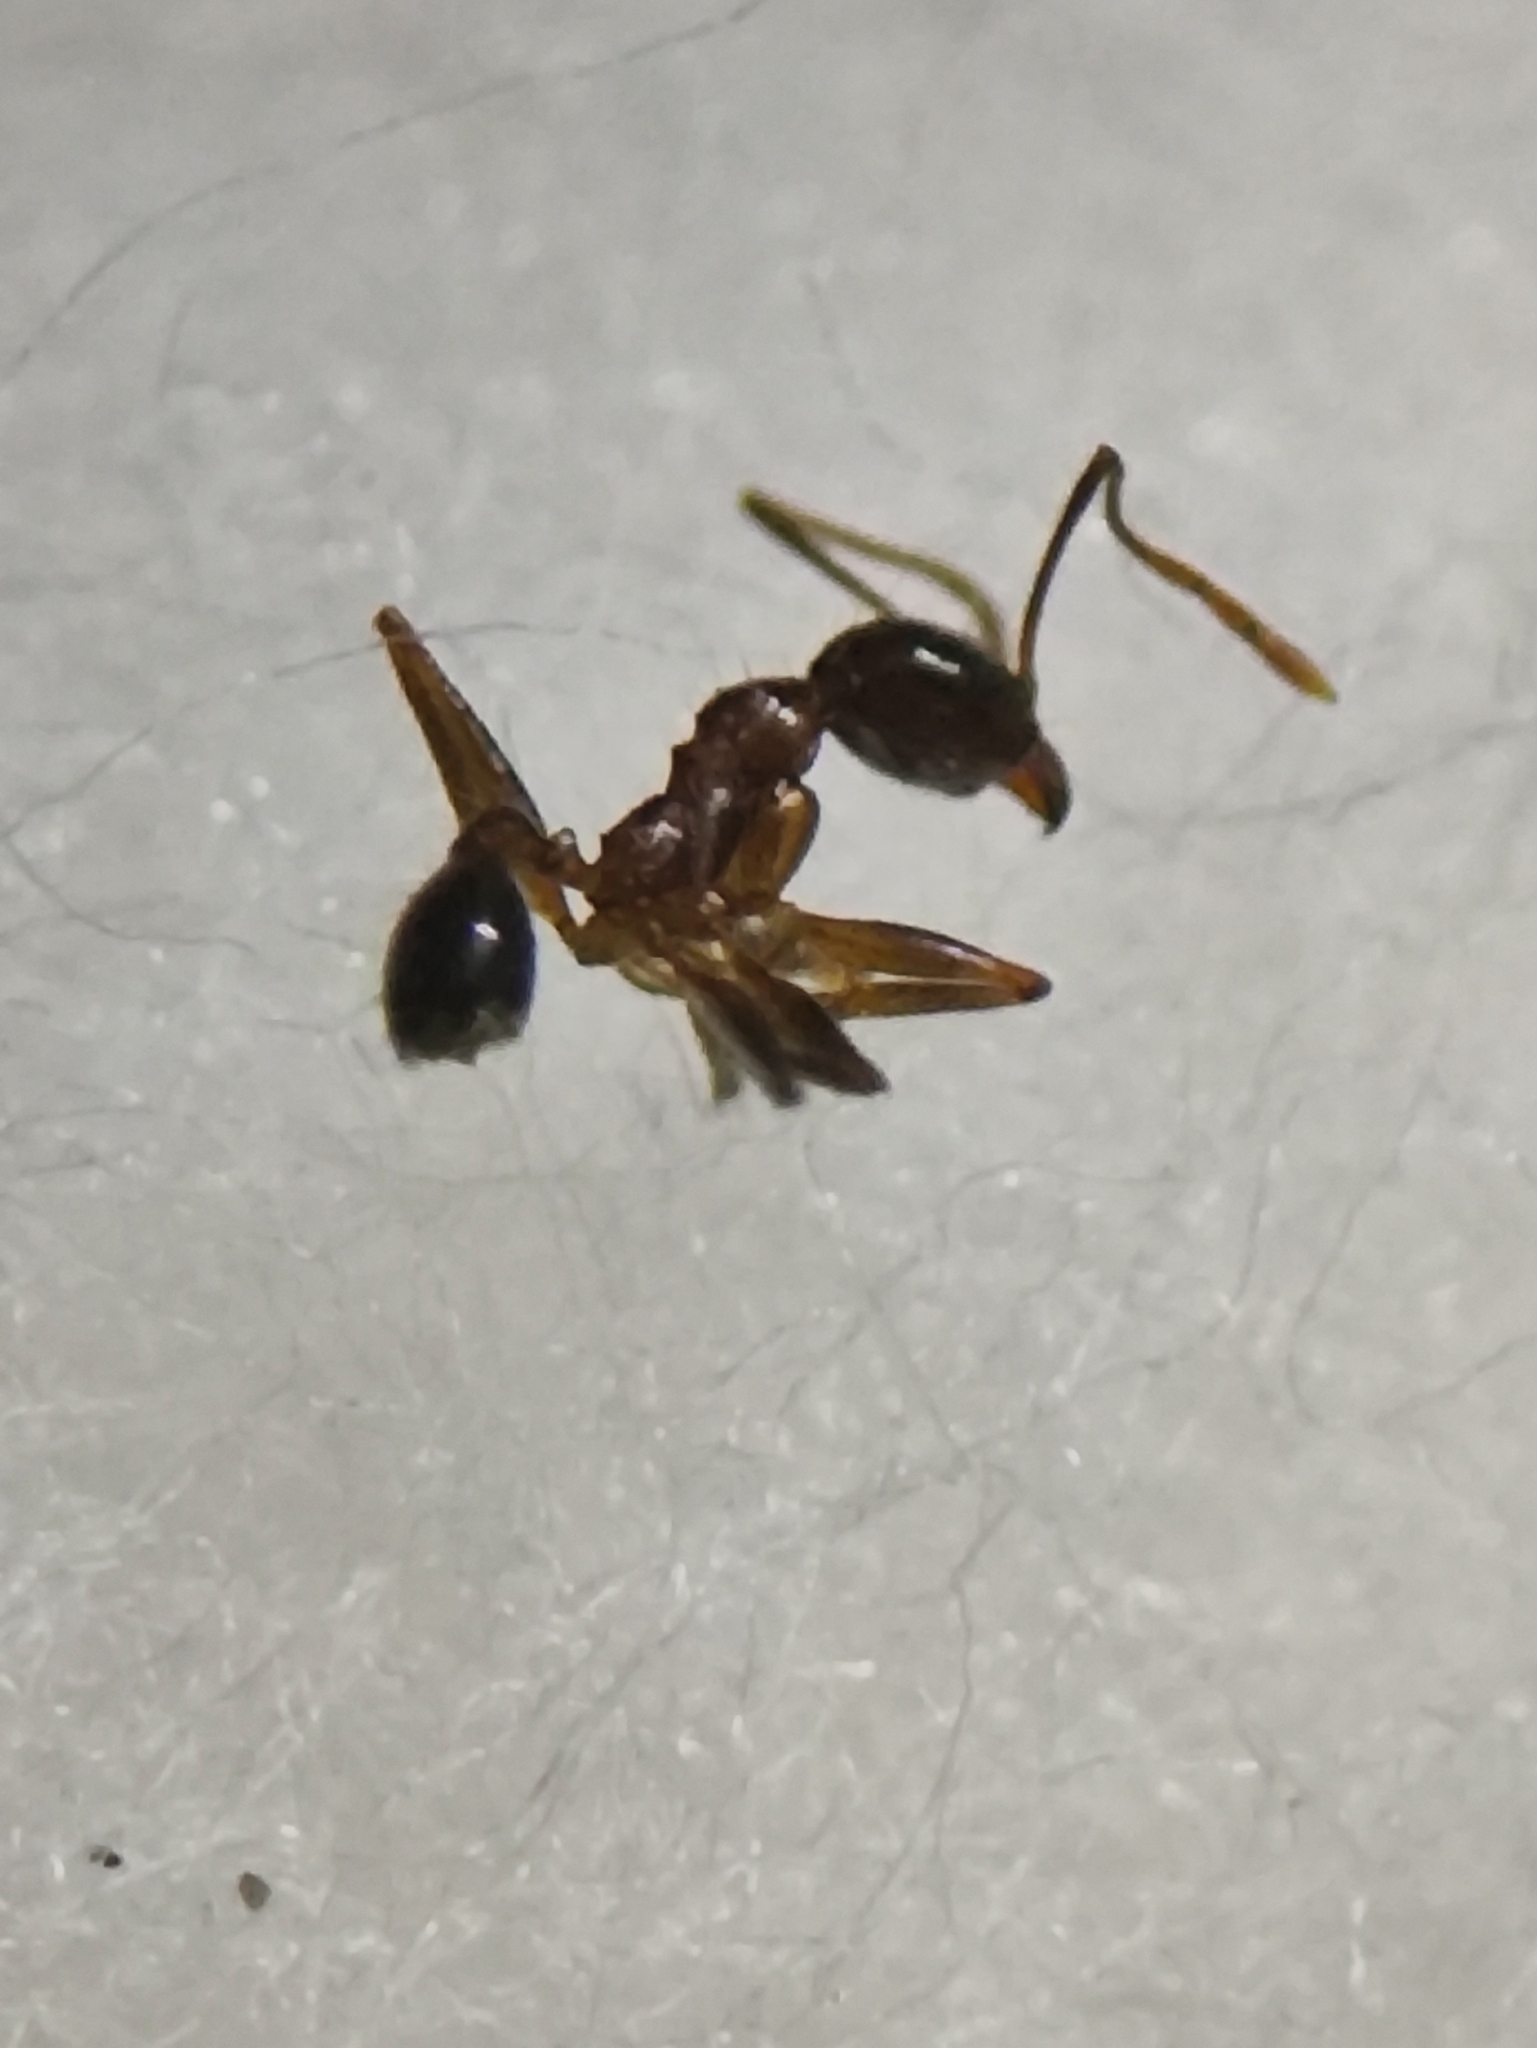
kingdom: Animalia
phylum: Arthropoda
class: Insecta
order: Hymenoptera
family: Formicidae
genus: Pheidole
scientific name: Pheidole noda
